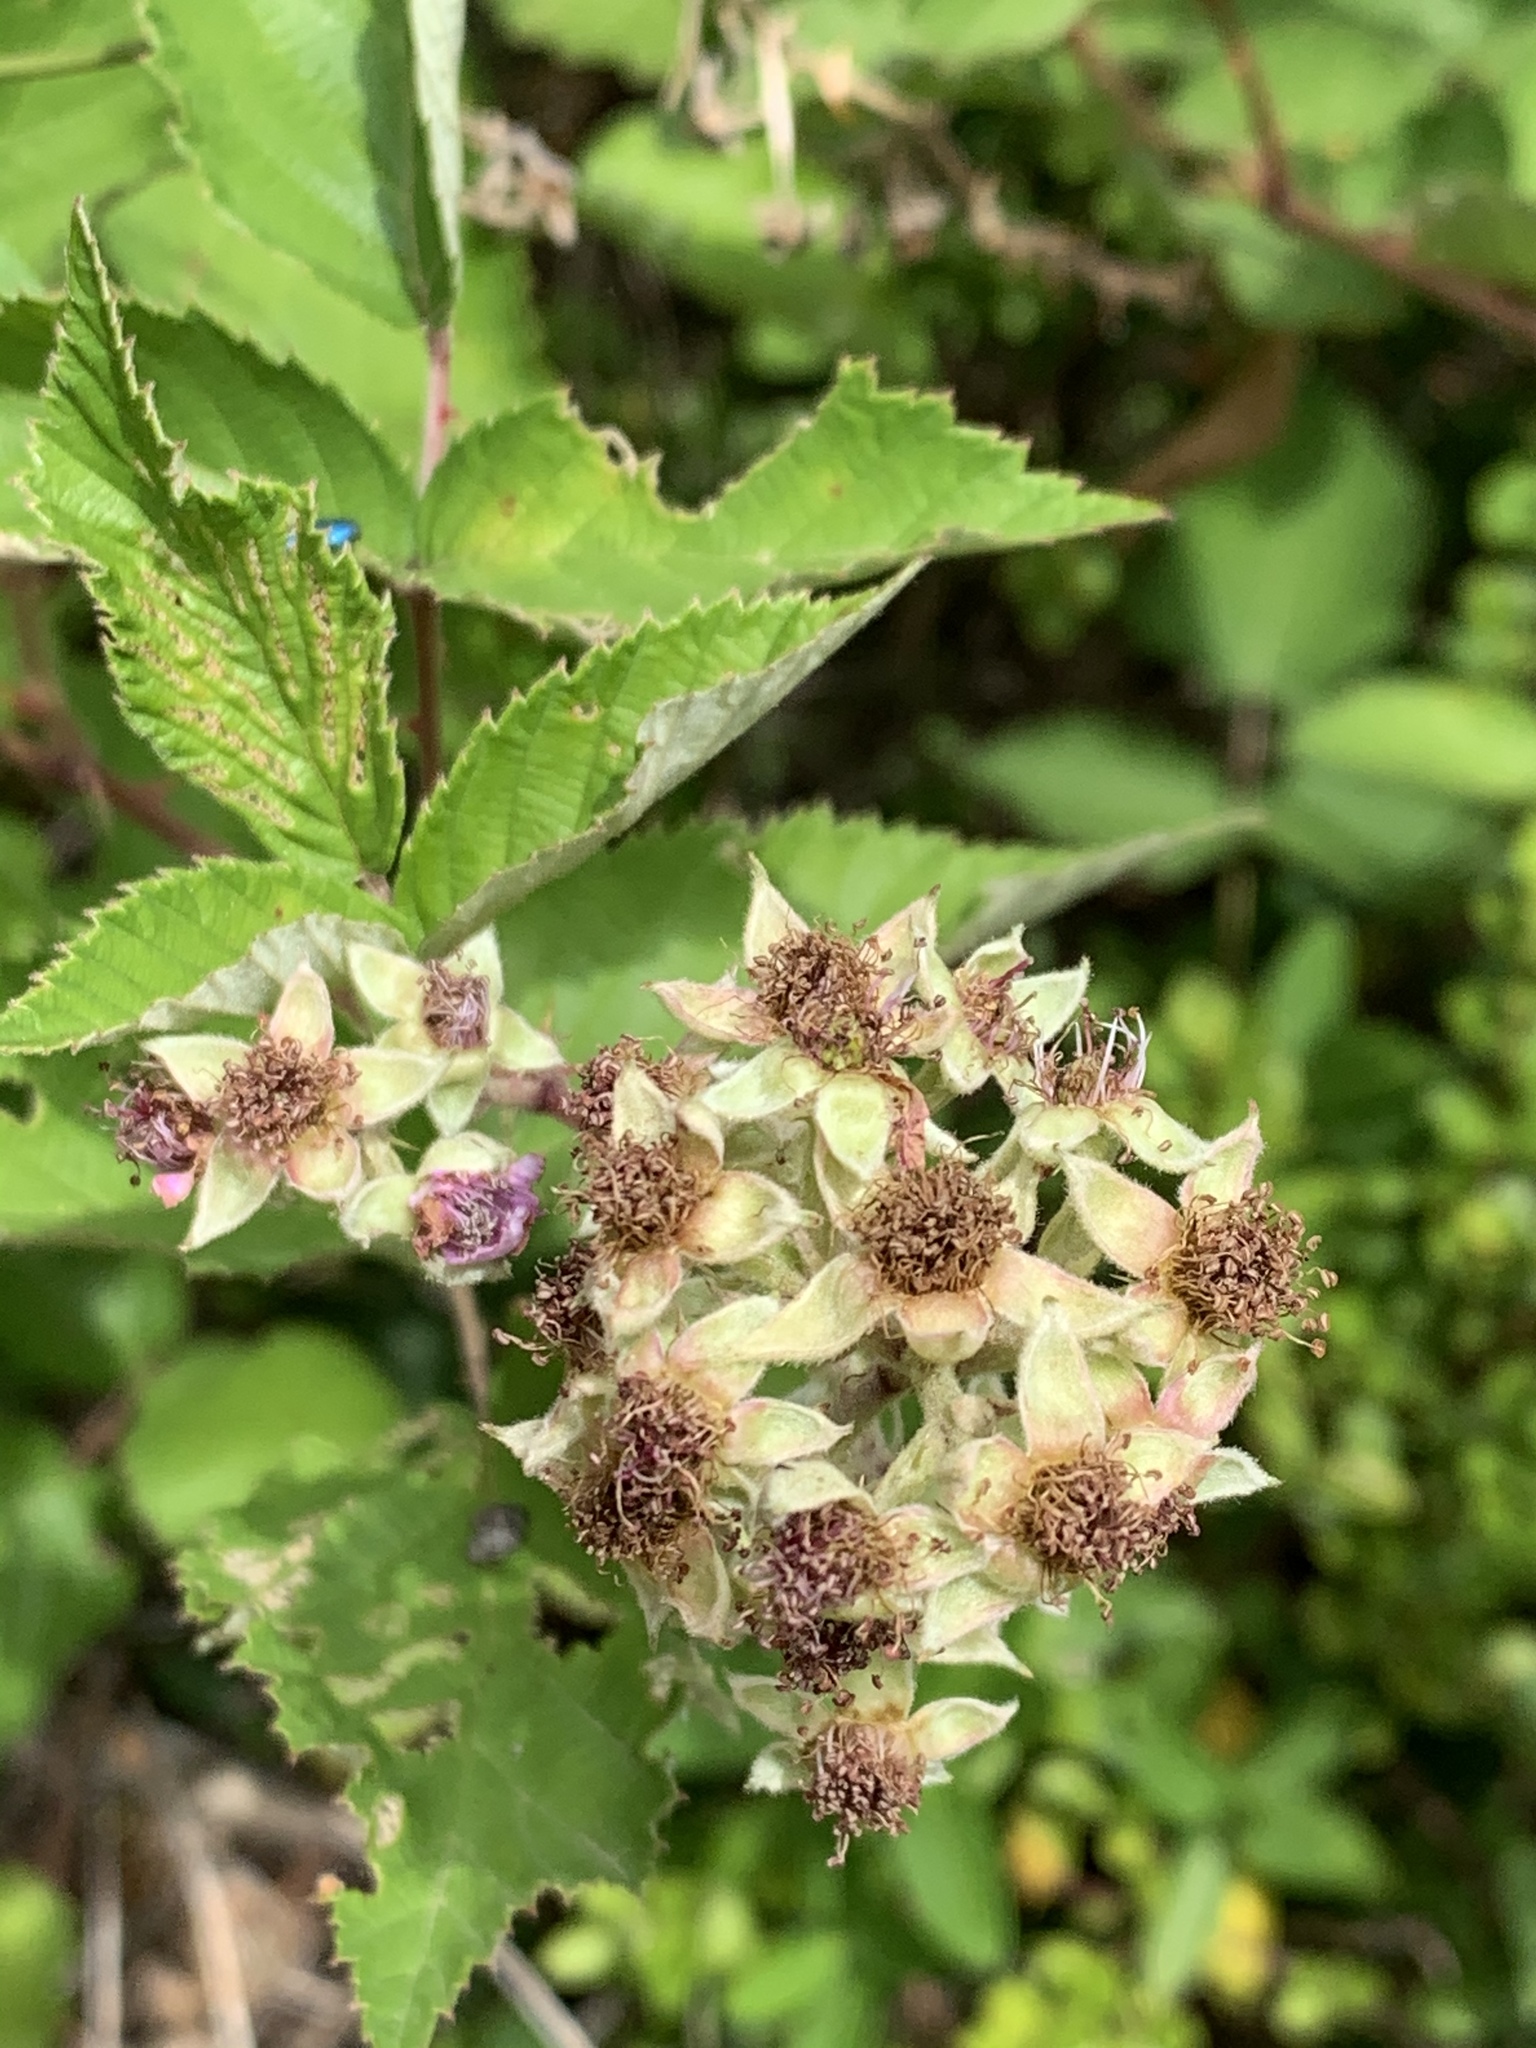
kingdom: Plantae
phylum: Tracheophyta
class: Magnoliopsida
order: Rosales
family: Rosaceae
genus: Rubus
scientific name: Rubus
